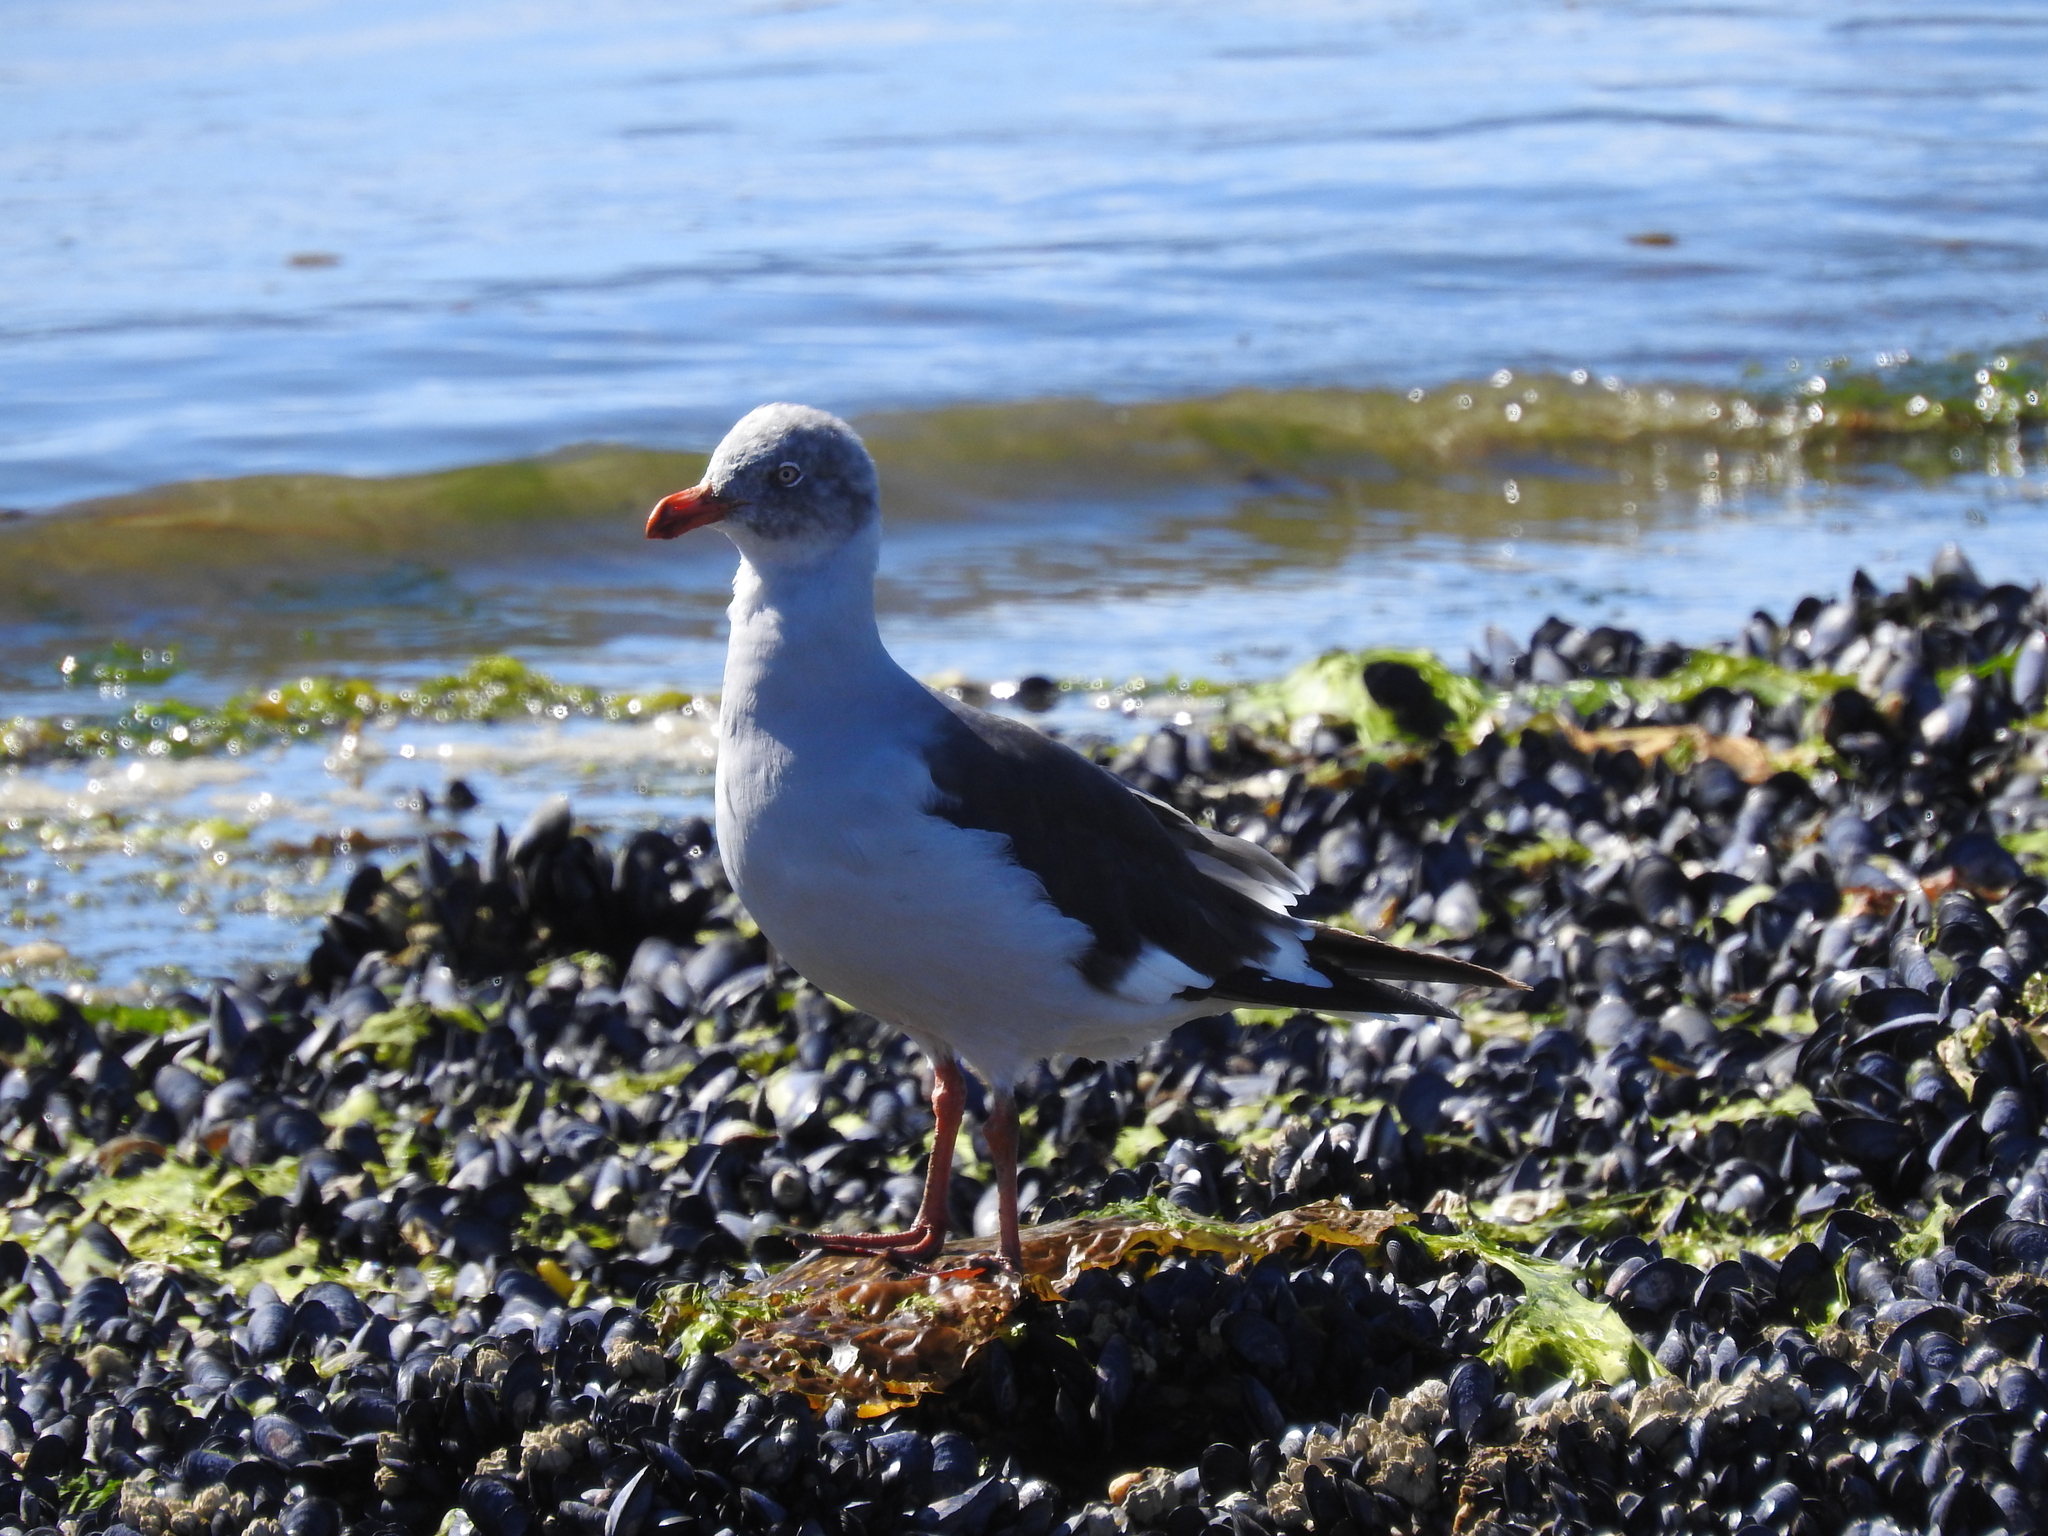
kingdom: Animalia
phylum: Chordata
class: Aves
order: Charadriiformes
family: Laridae
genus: Leucophaeus
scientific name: Leucophaeus scoresbii
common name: Dolphin gull
